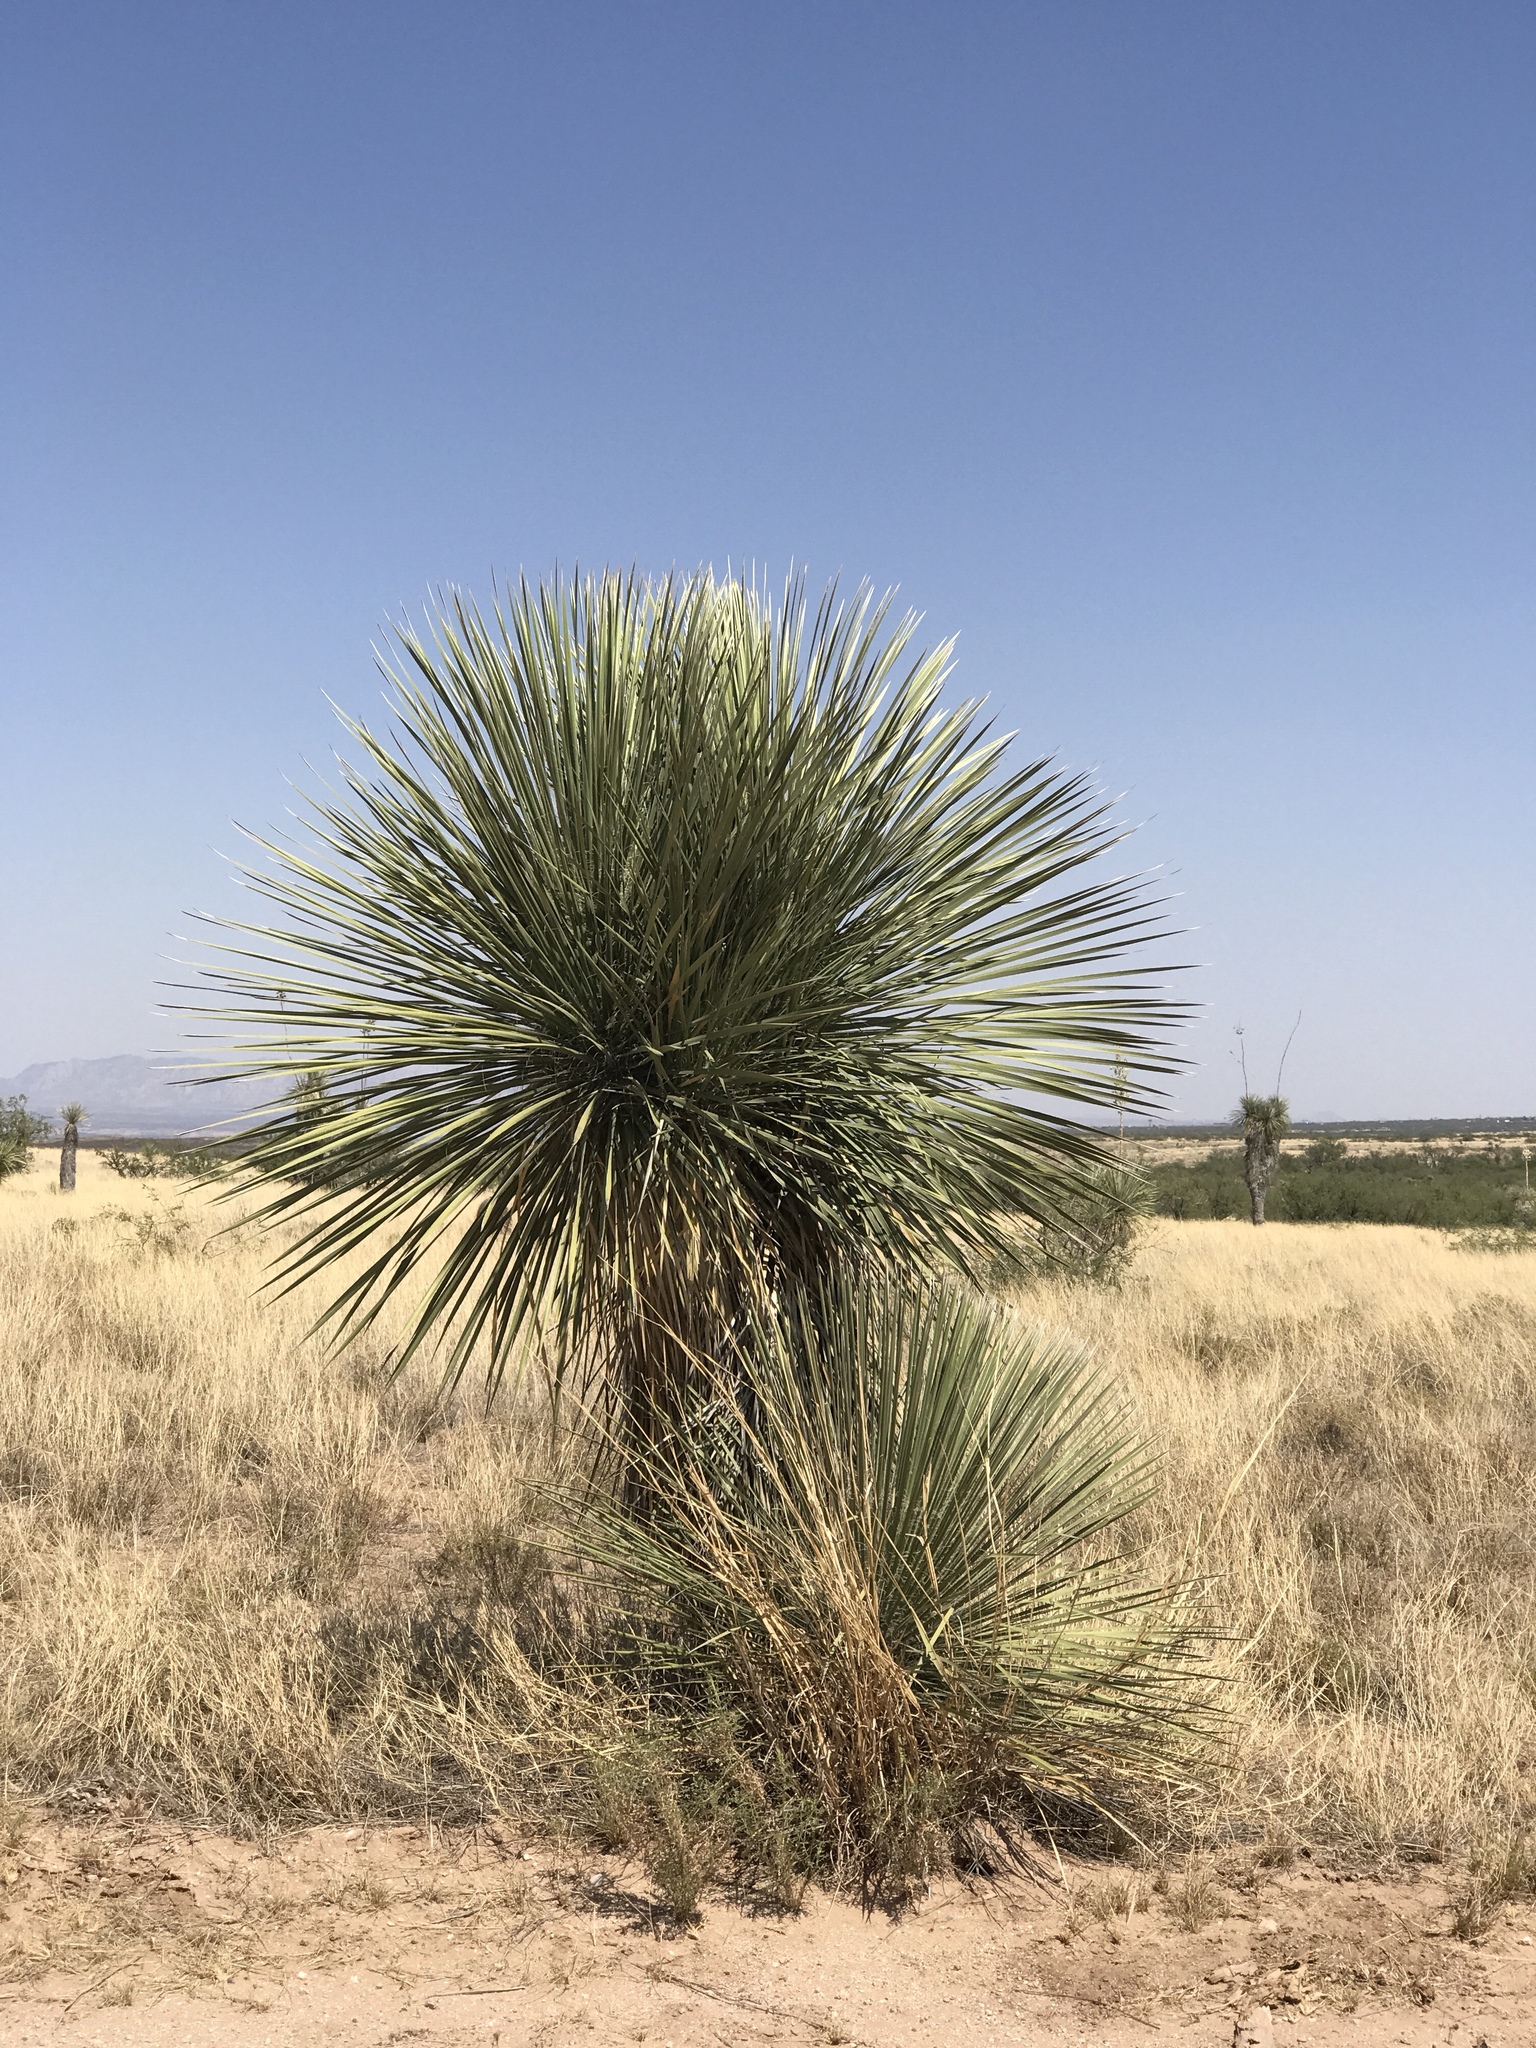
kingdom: Plantae
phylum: Tracheophyta
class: Liliopsida
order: Asparagales
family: Asparagaceae
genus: Yucca
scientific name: Yucca elata
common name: Palmella
